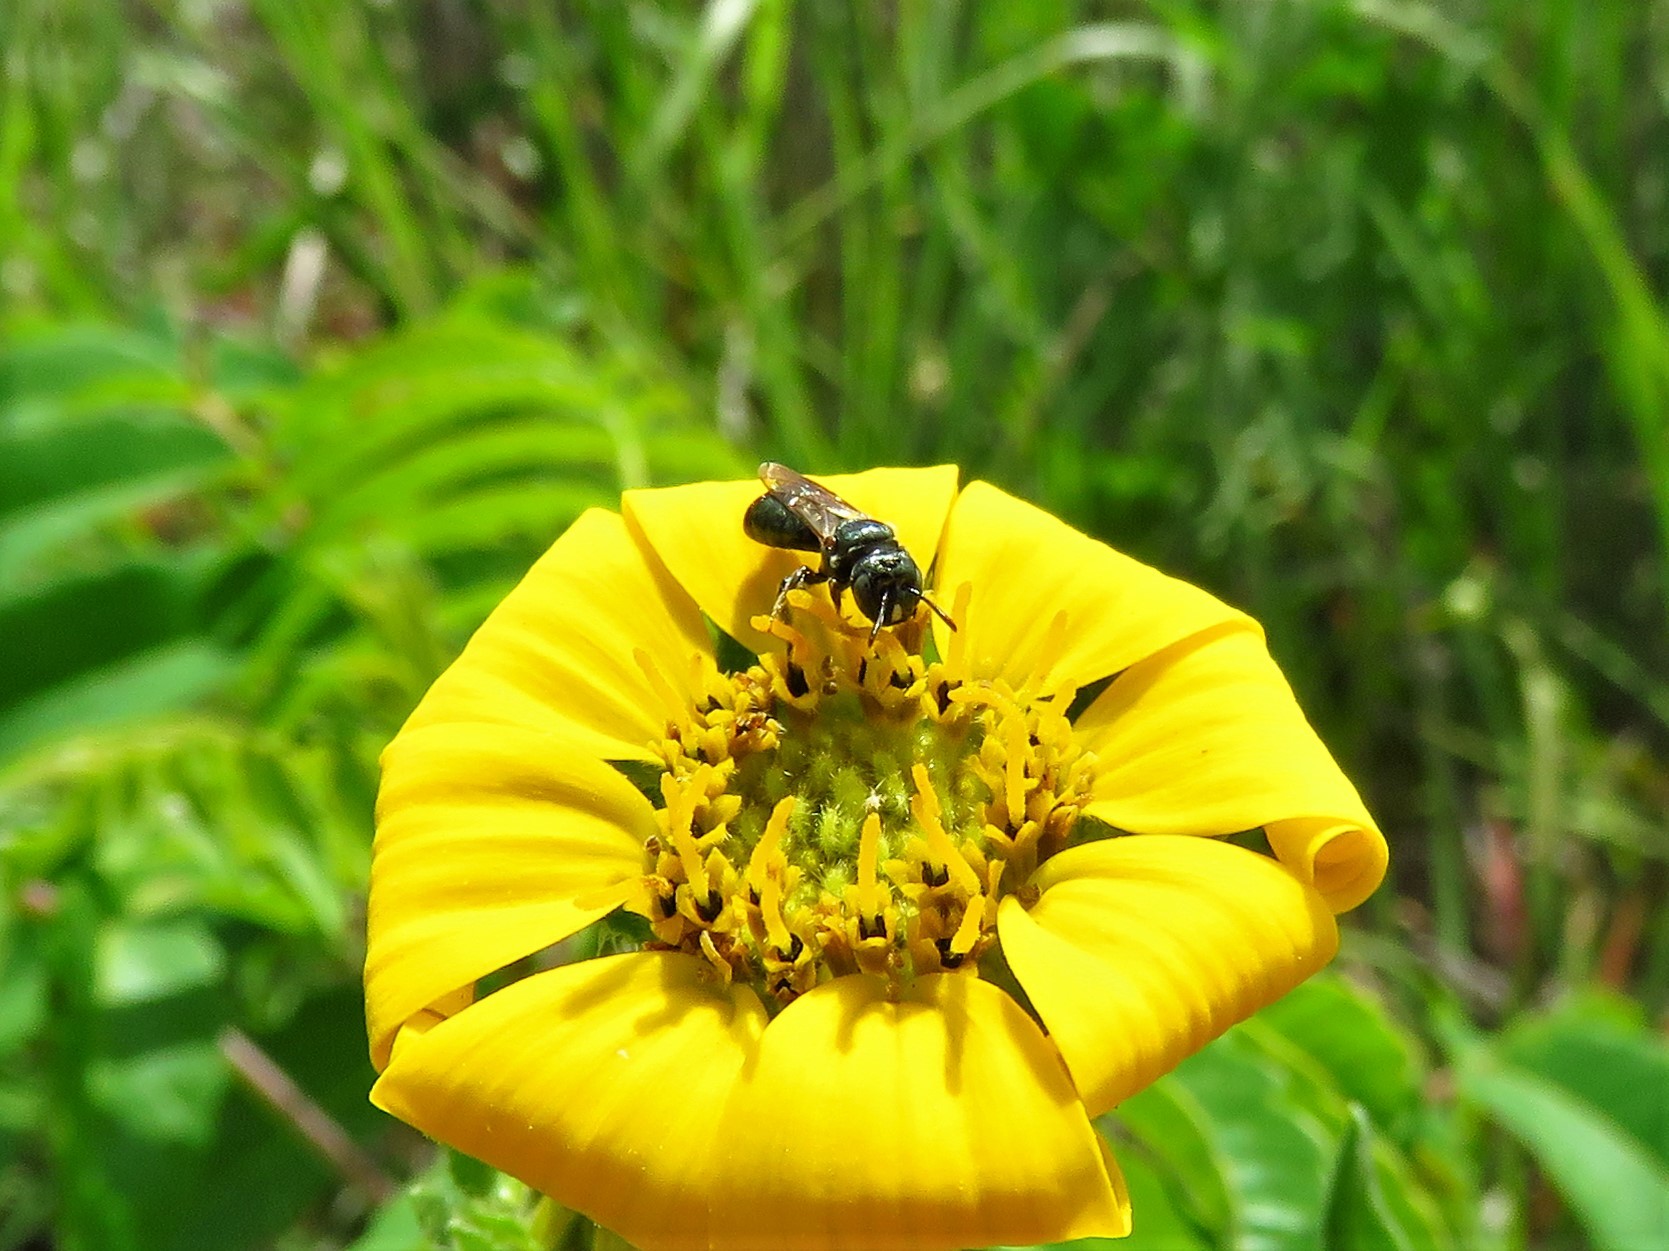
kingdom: Animalia
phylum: Arthropoda
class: Insecta
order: Hymenoptera
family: Apidae
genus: Zadontomerus
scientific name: Zadontomerus
